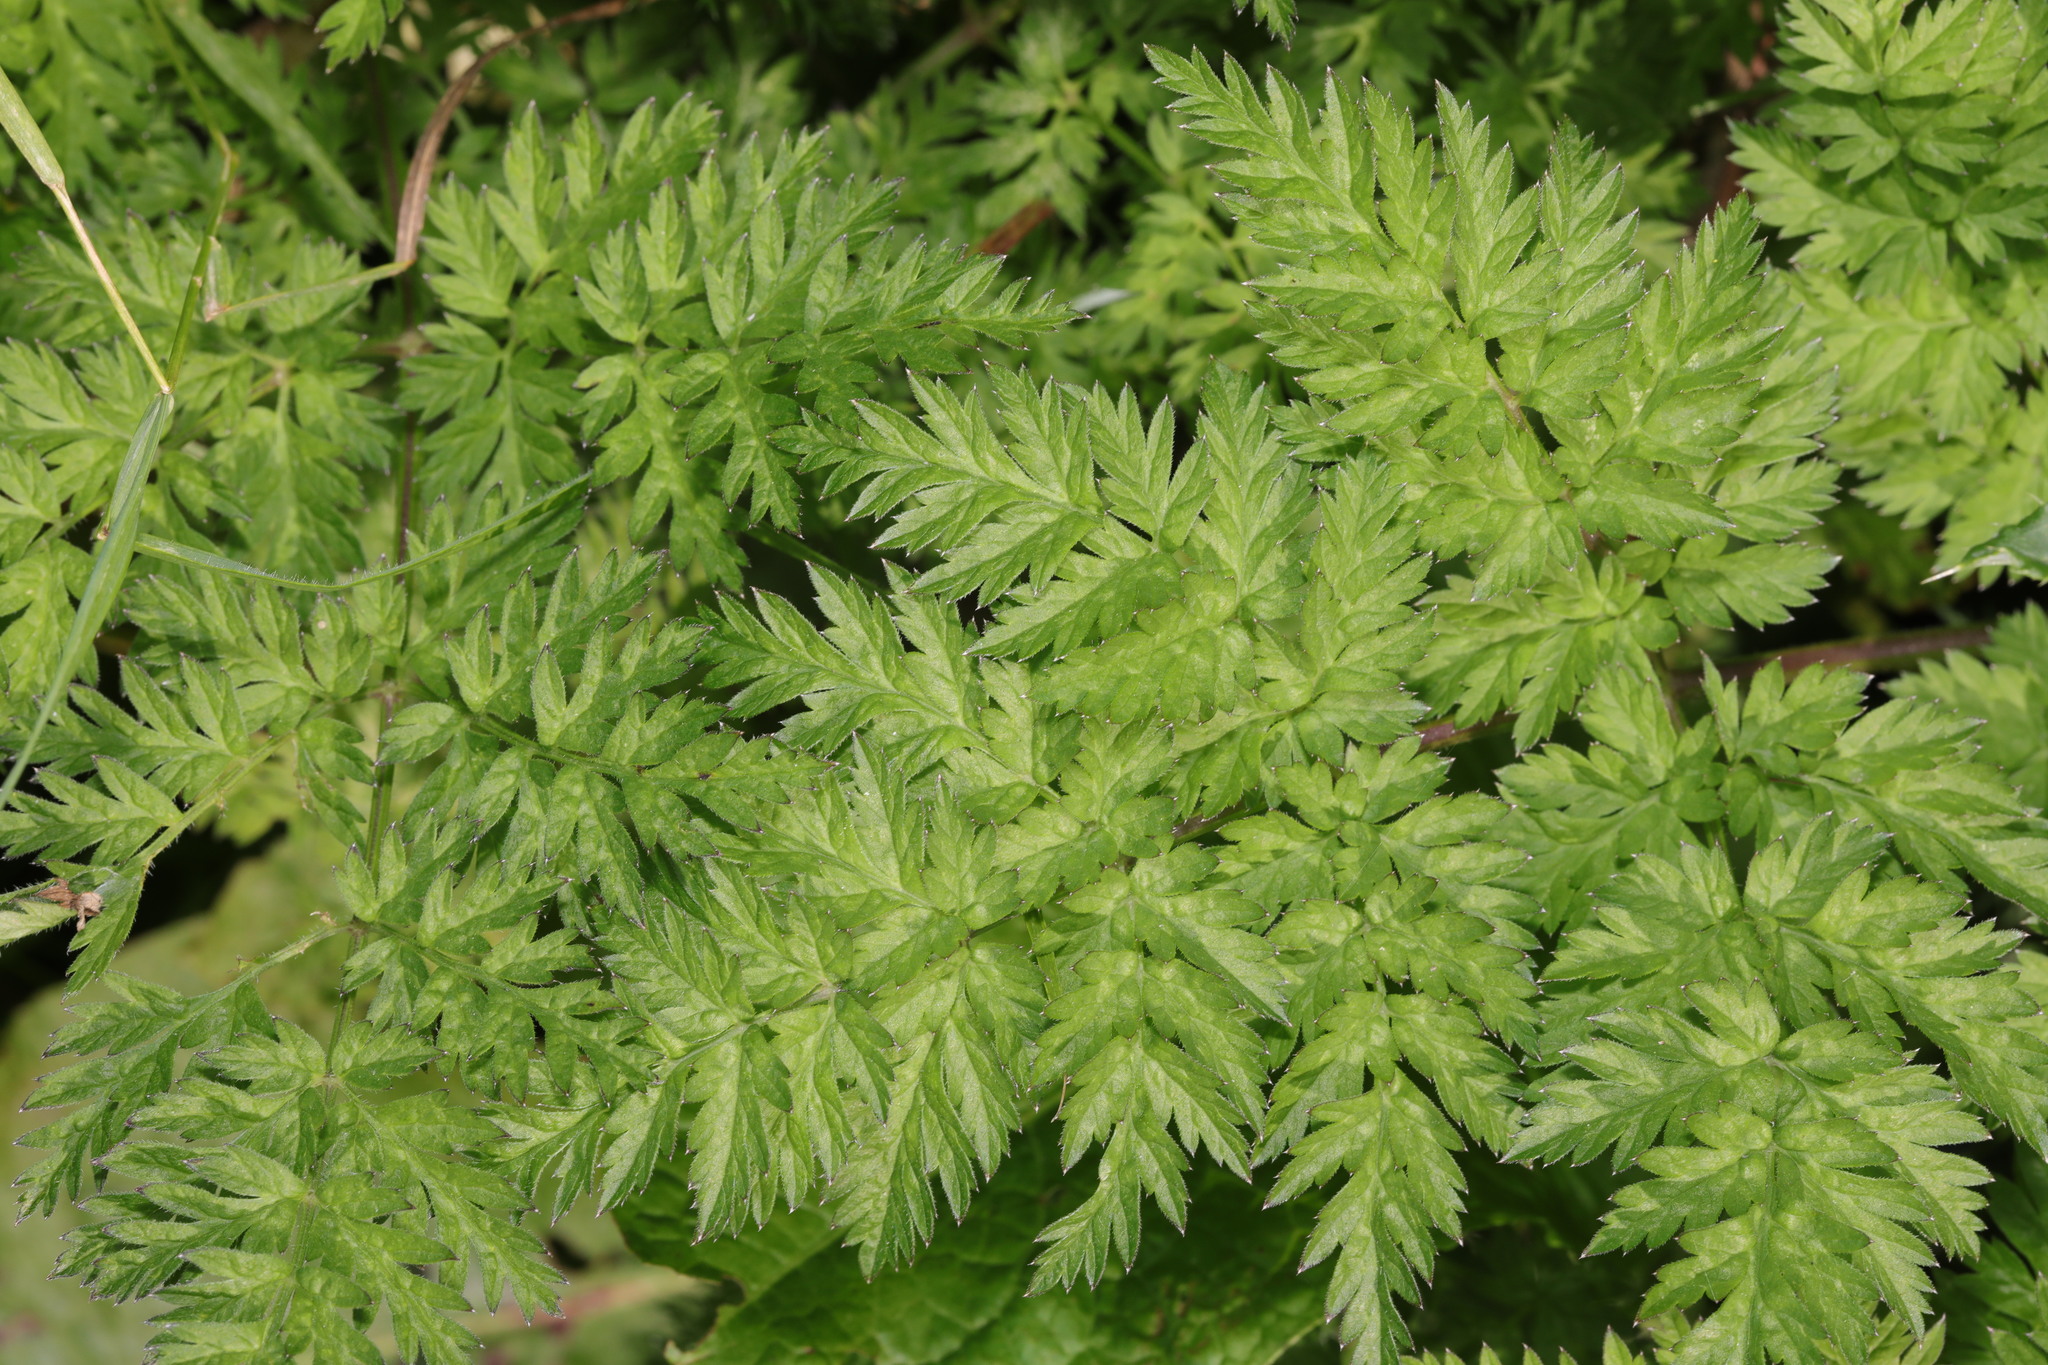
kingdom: Plantae
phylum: Tracheophyta
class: Magnoliopsida
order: Apiales
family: Apiaceae
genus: Anthriscus
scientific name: Anthriscus sylvestris
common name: Cow parsley
